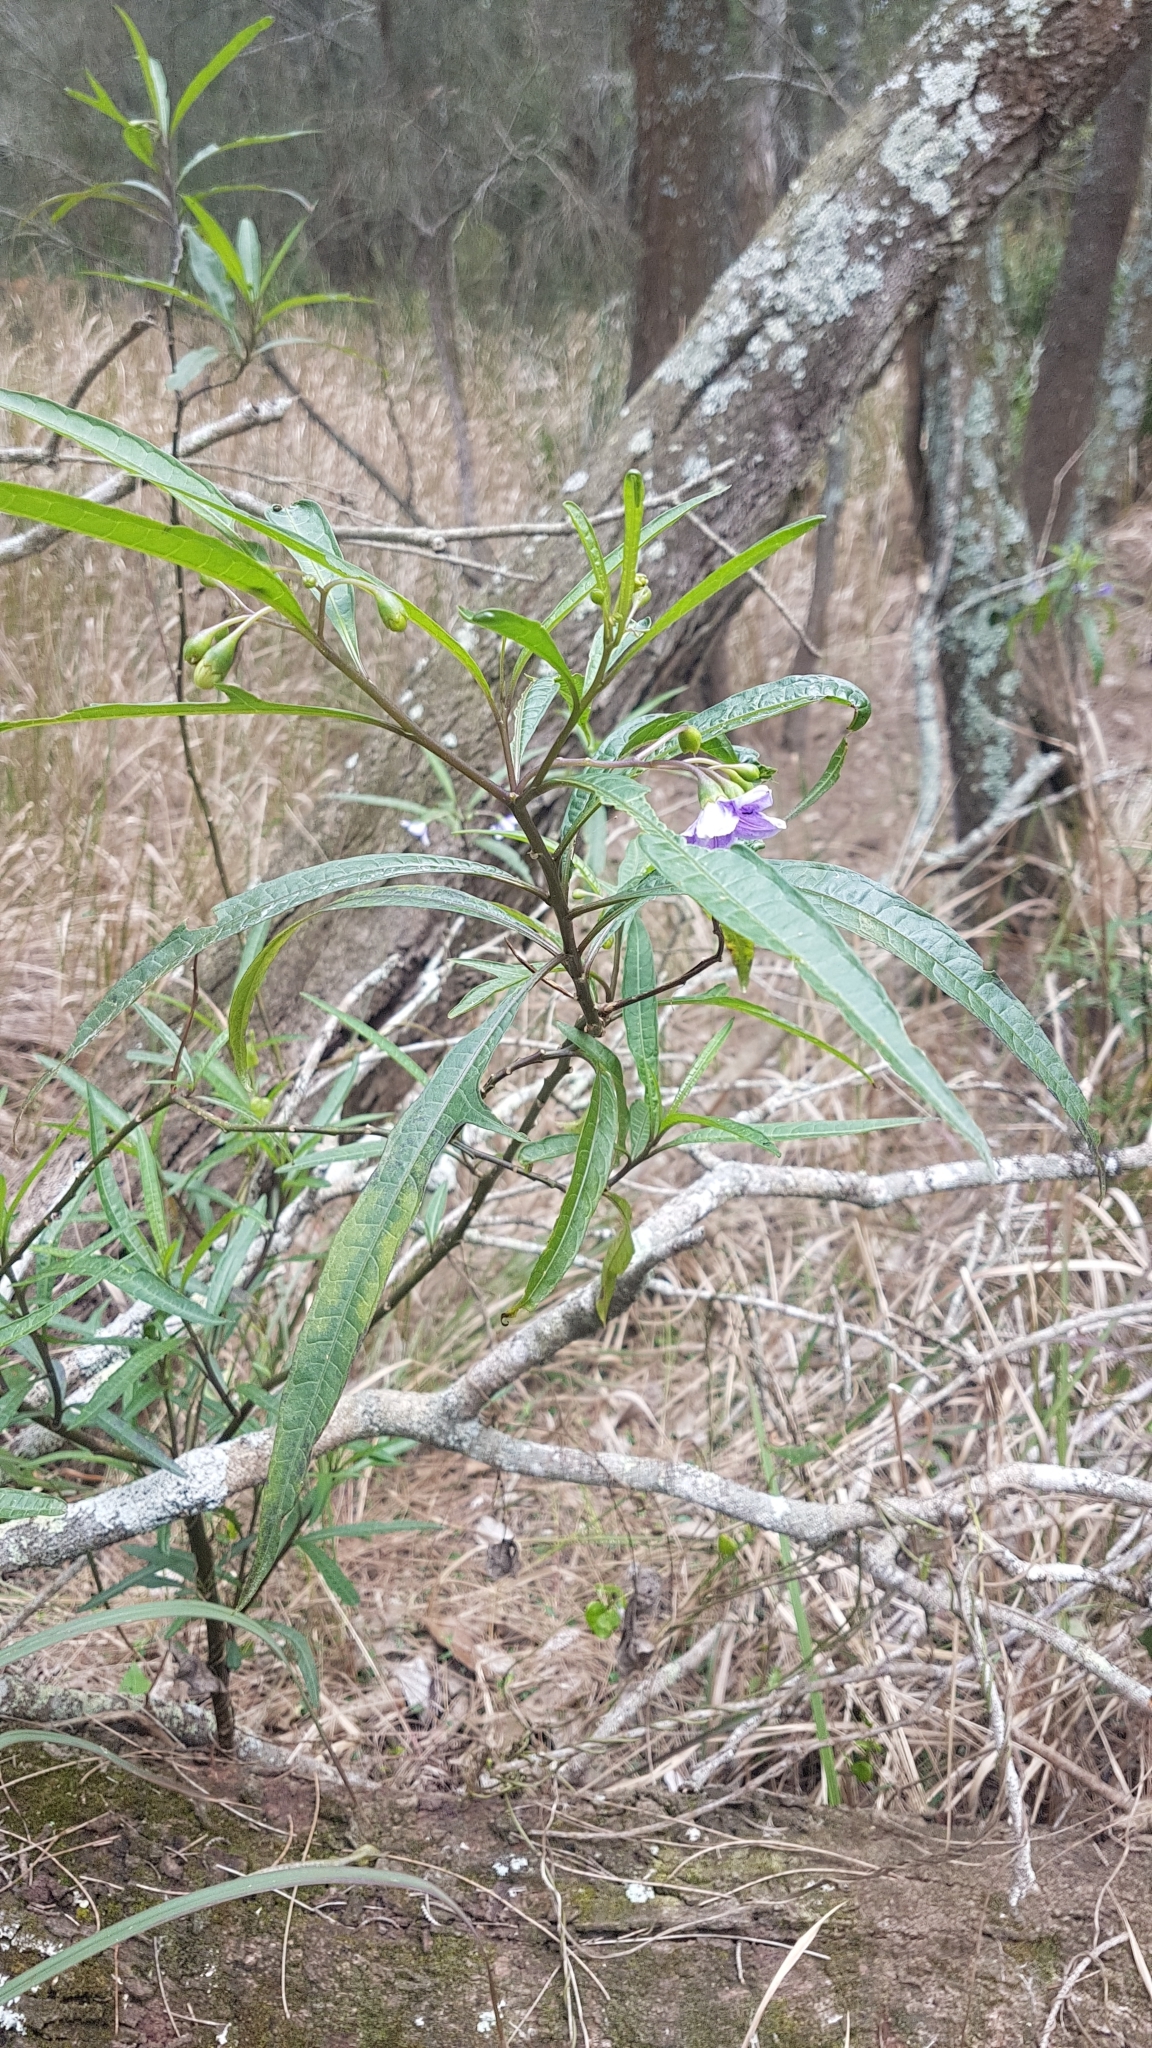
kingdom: Plantae
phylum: Tracheophyta
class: Magnoliopsida
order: Solanales
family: Solanaceae
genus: Solanum
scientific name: Solanum aviculare
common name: New zealand nightshade
